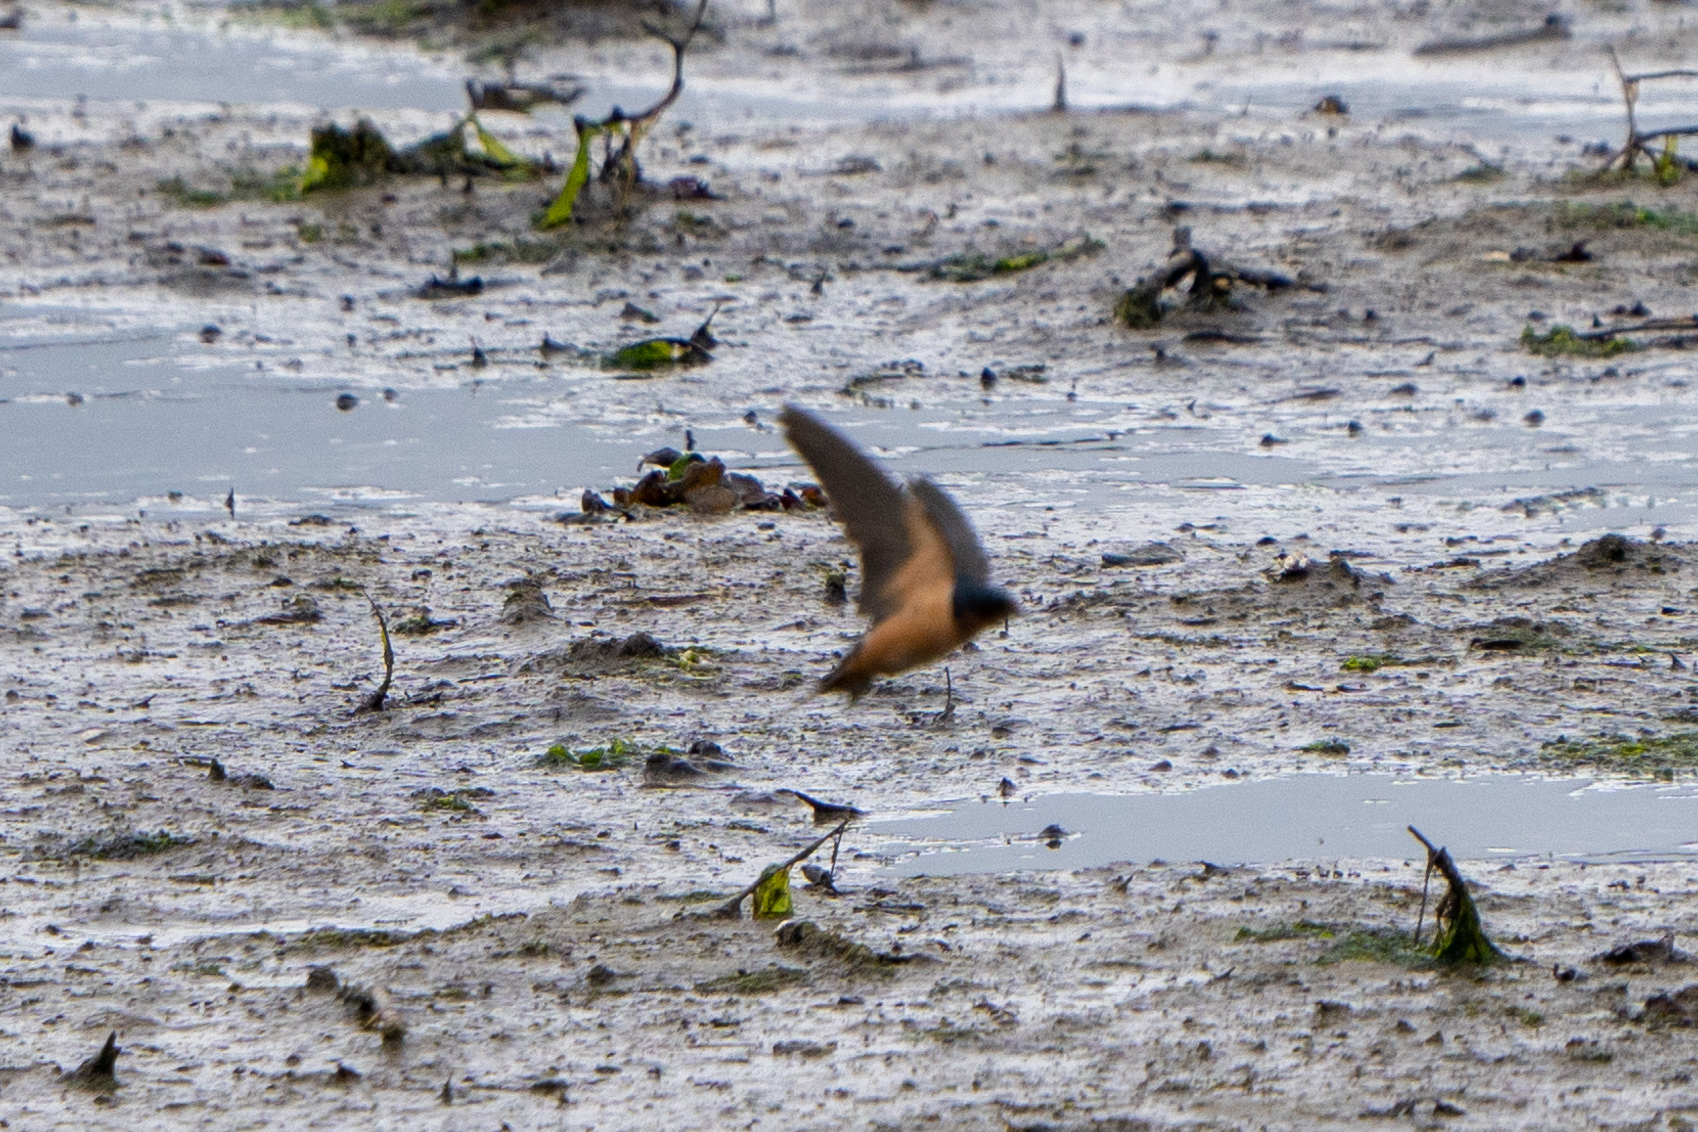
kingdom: Animalia
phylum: Chordata
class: Aves
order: Passeriformes
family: Hirundinidae
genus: Hirundo
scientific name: Hirundo rustica
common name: Barn swallow
